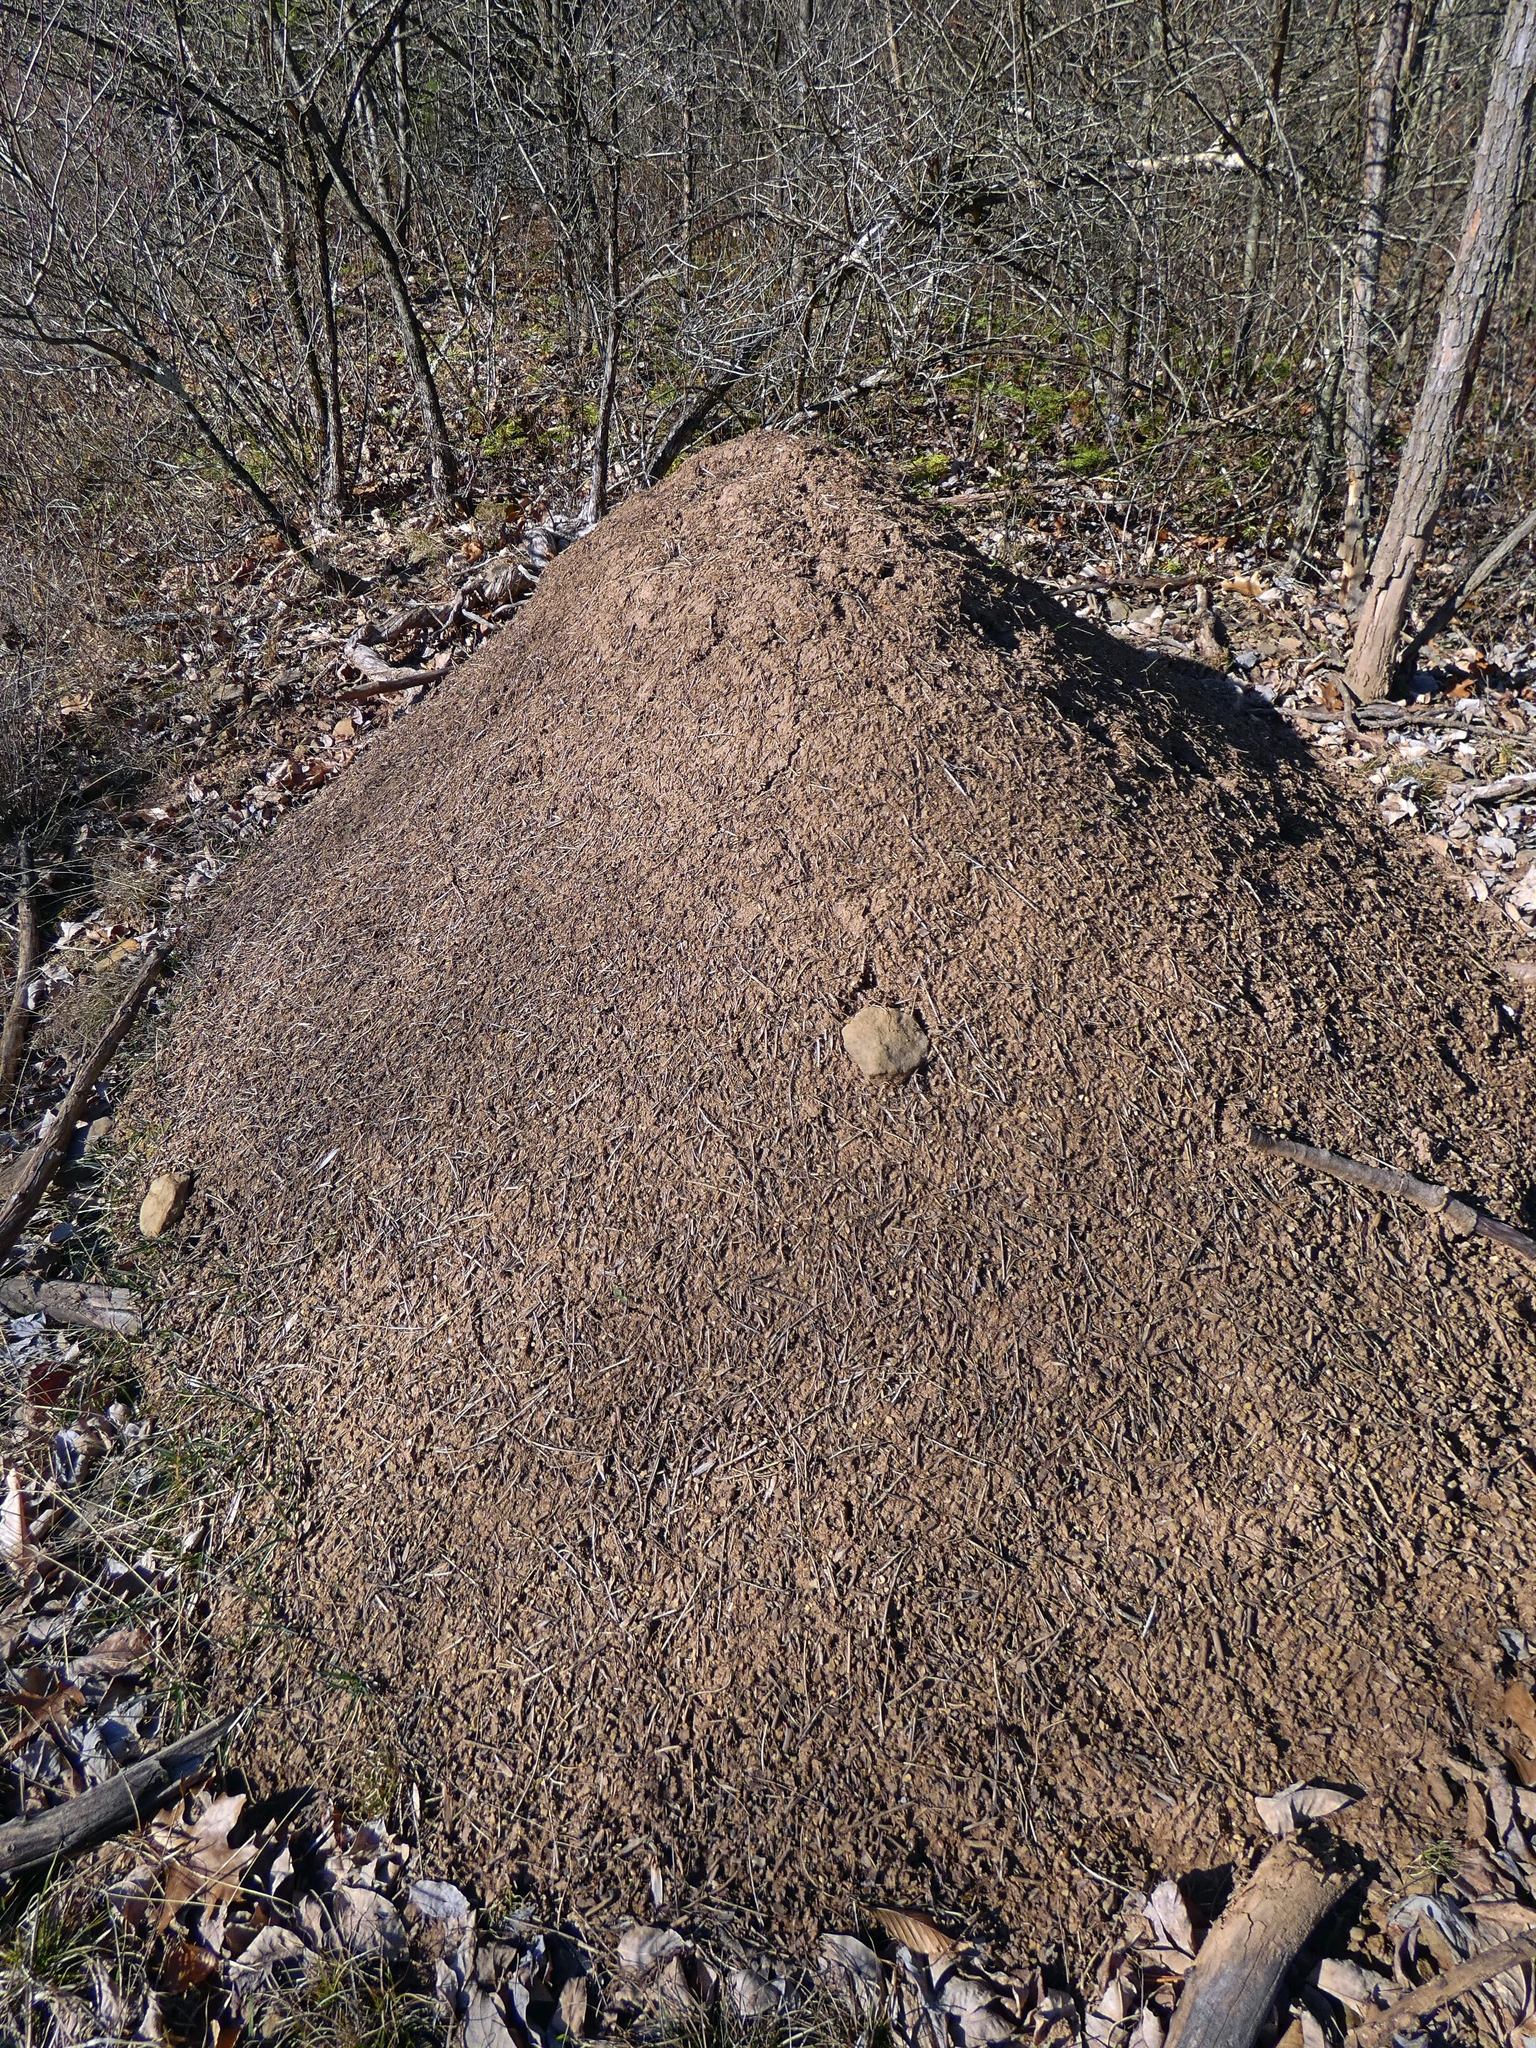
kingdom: Animalia
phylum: Arthropoda
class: Insecta
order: Hymenoptera
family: Formicidae
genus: Formica
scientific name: Formica exsectoides
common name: Allegheny mound ant
